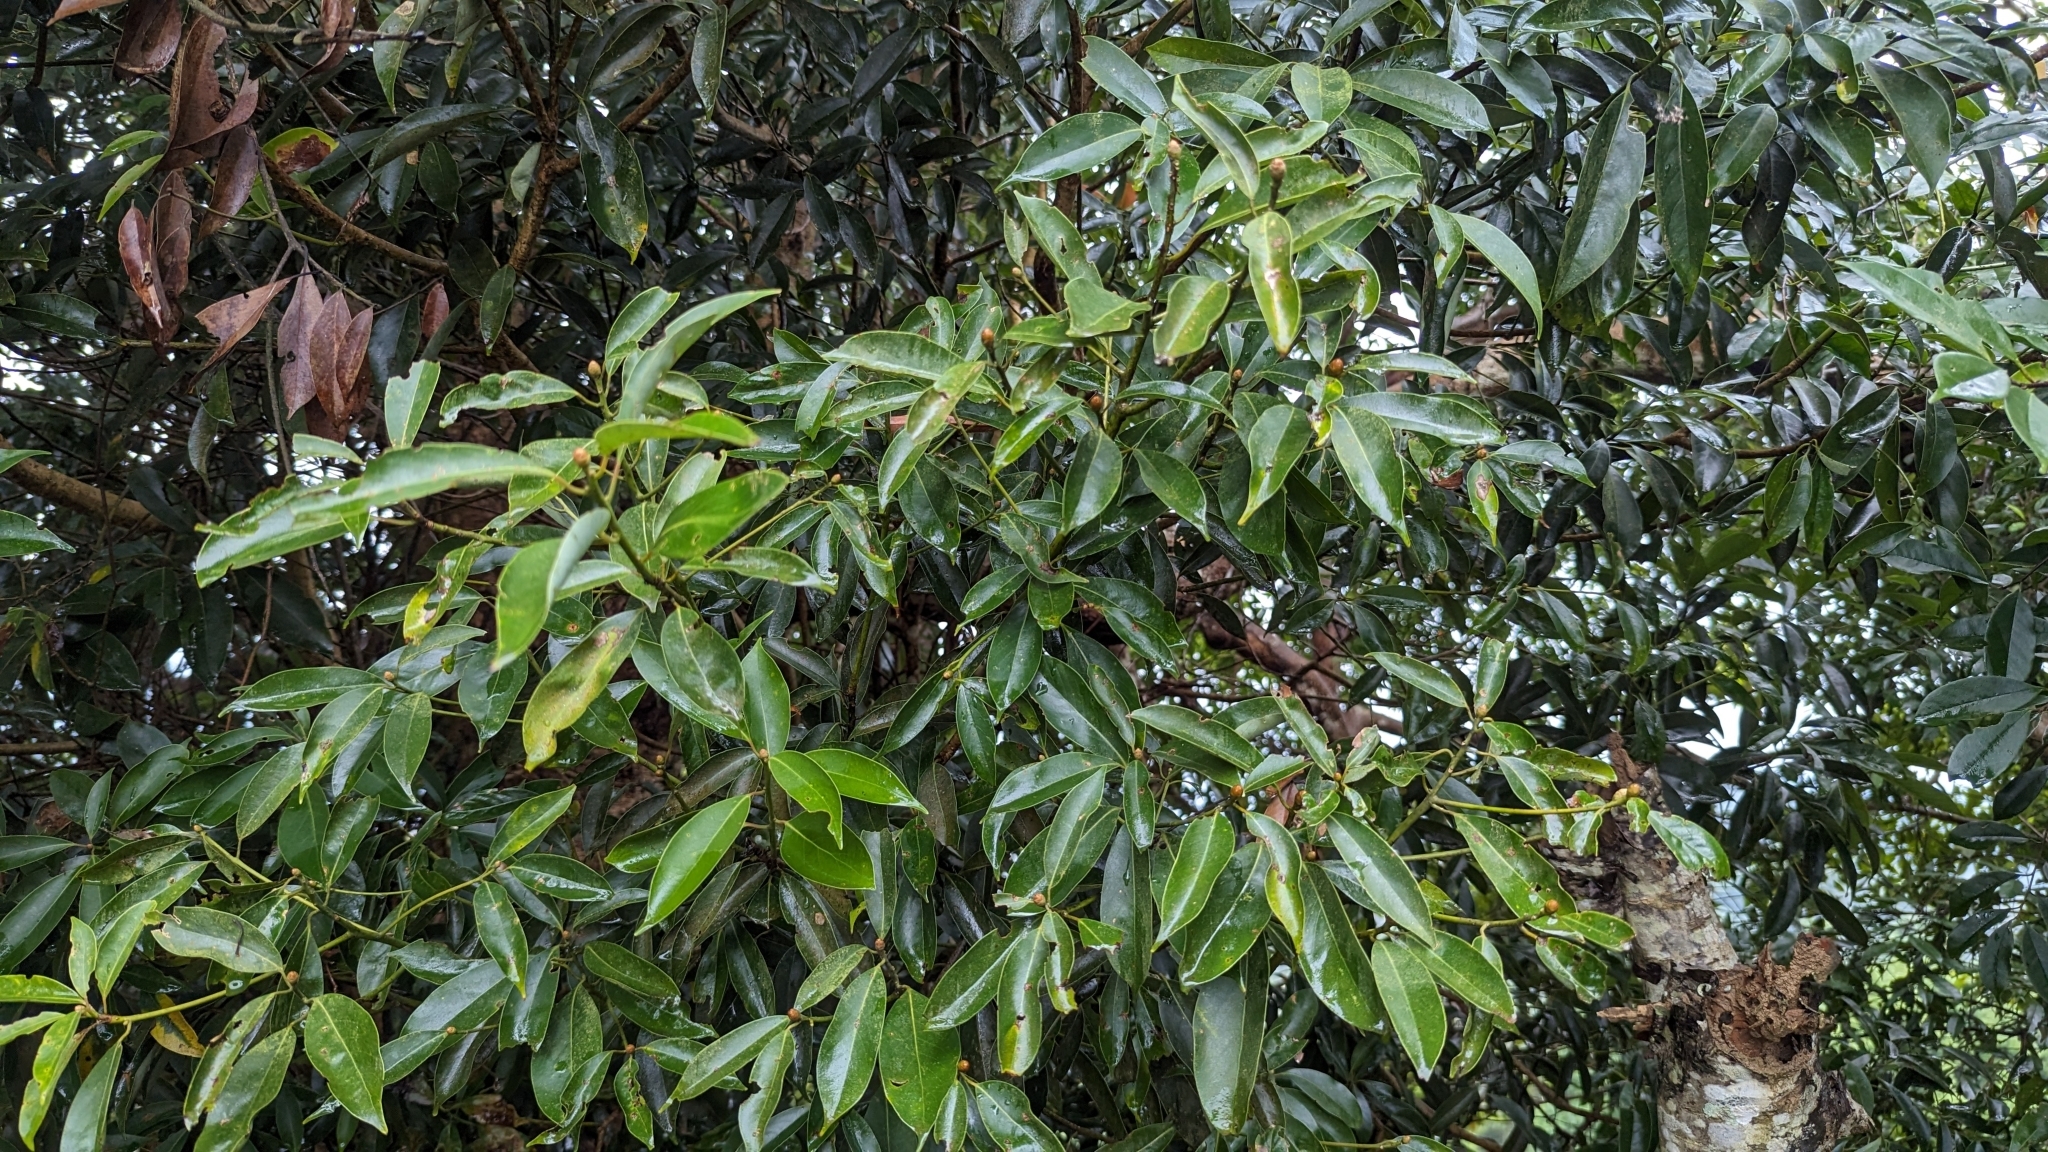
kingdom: Plantae
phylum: Tracheophyta
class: Magnoliopsida
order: Laurales
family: Lauraceae
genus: Machilus
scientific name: Machilus thunbergii
